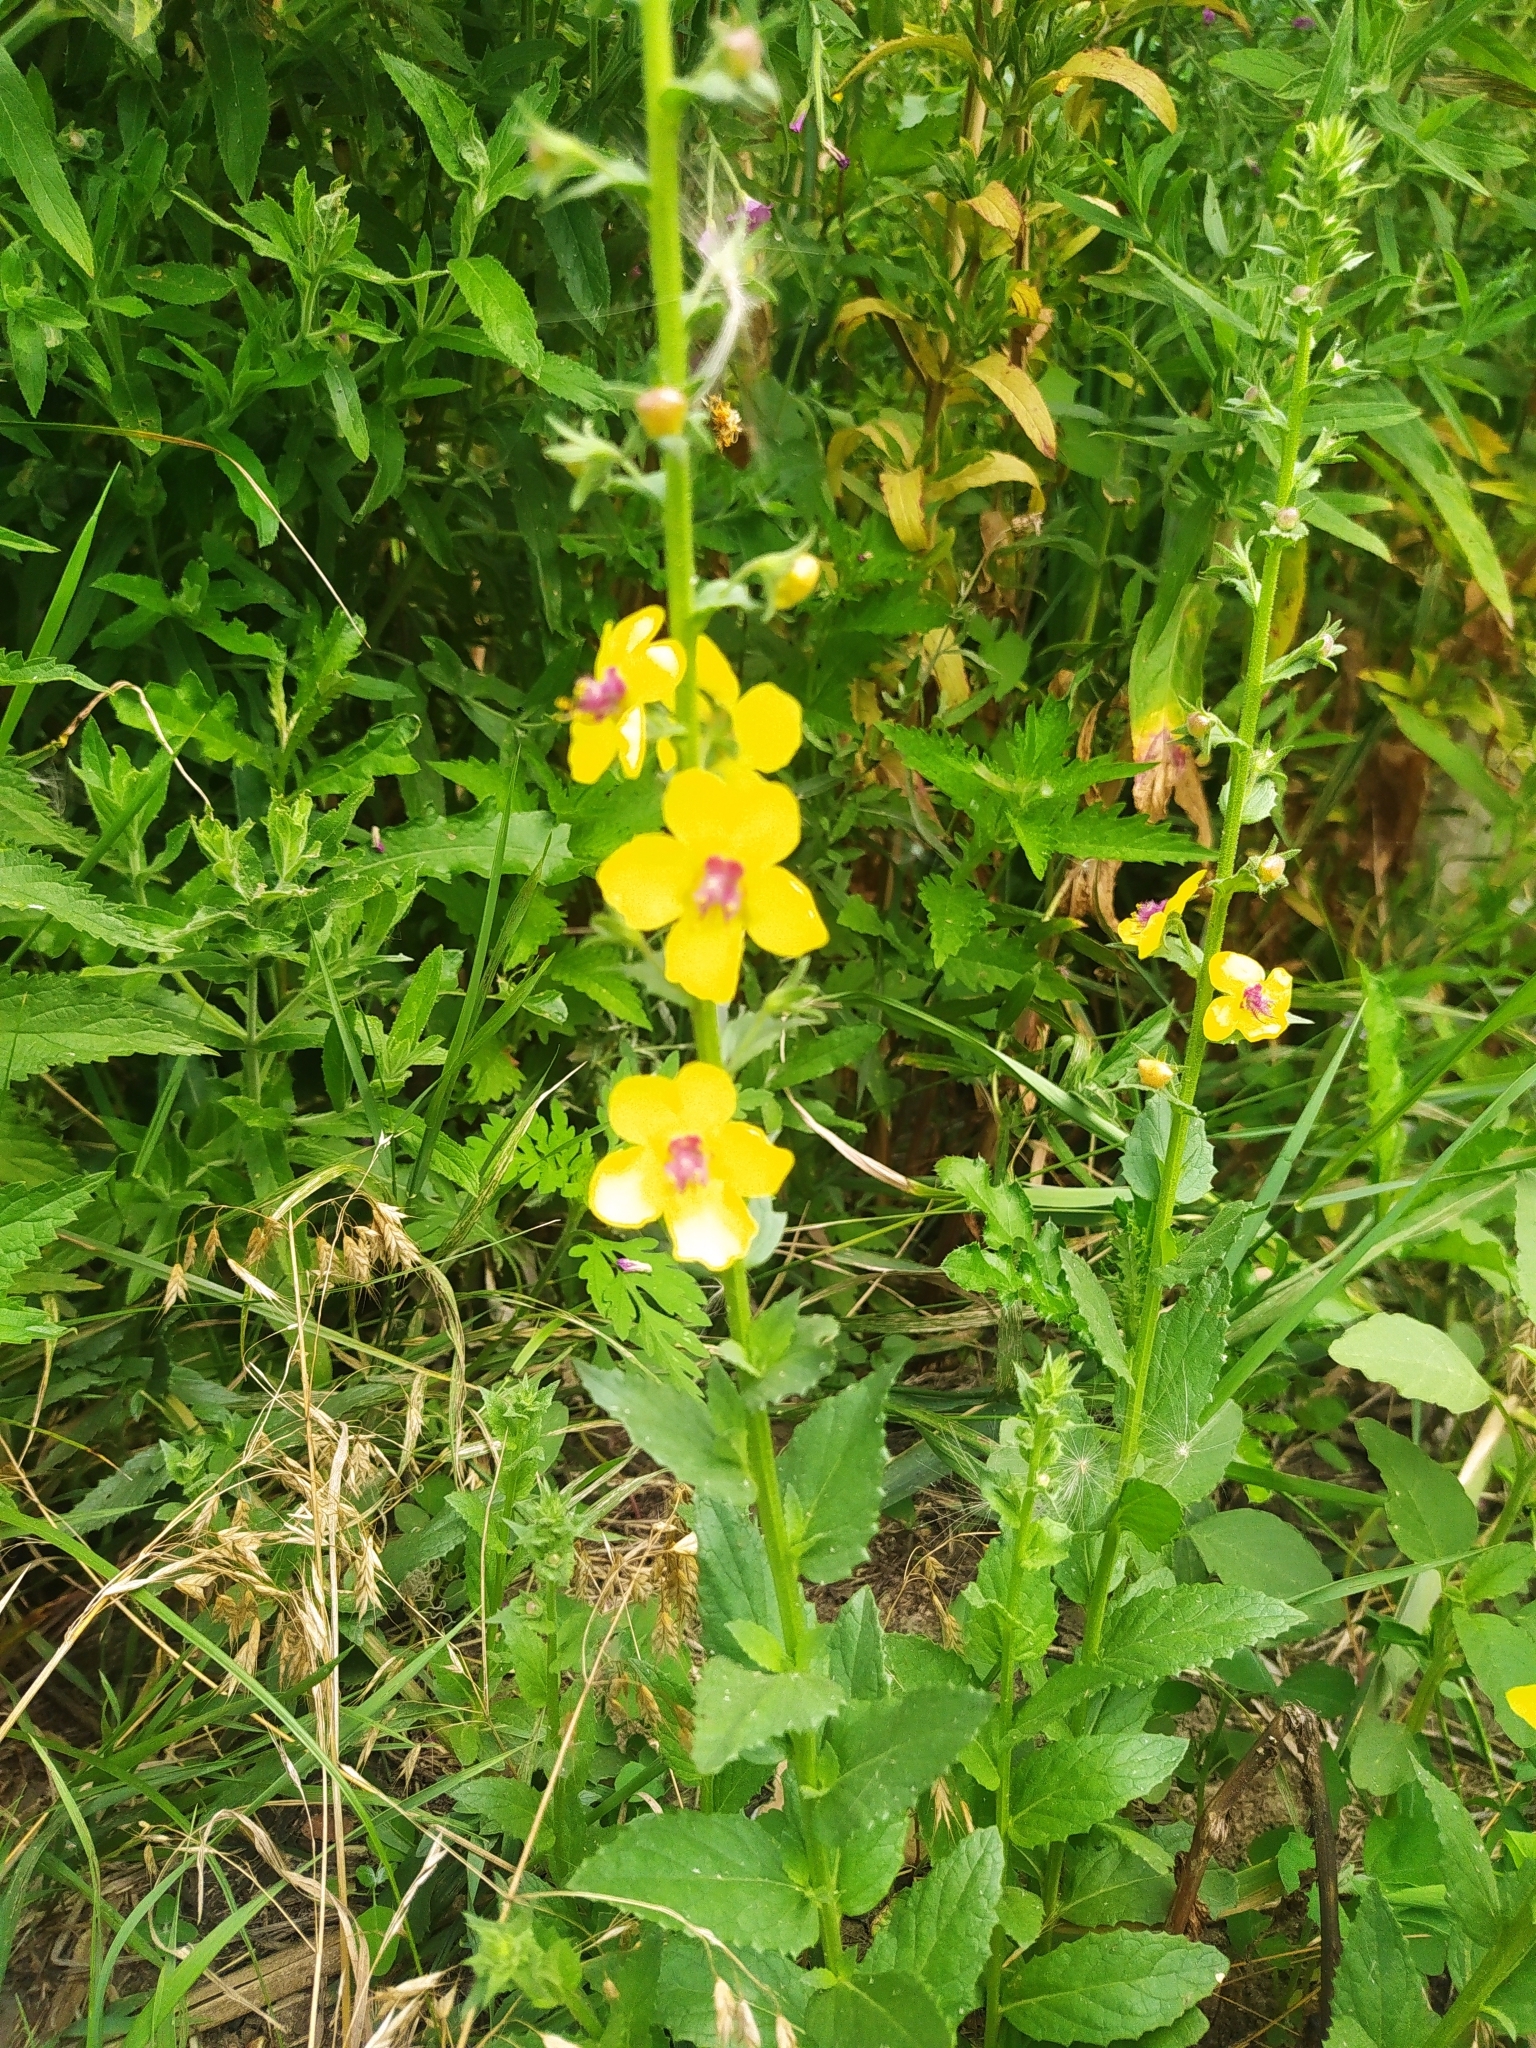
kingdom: Plantae
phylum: Tracheophyta
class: Magnoliopsida
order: Lamiales
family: Scrophulariaceae
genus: Verbascum
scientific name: Verbascum blattaria
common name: Moth mullein
